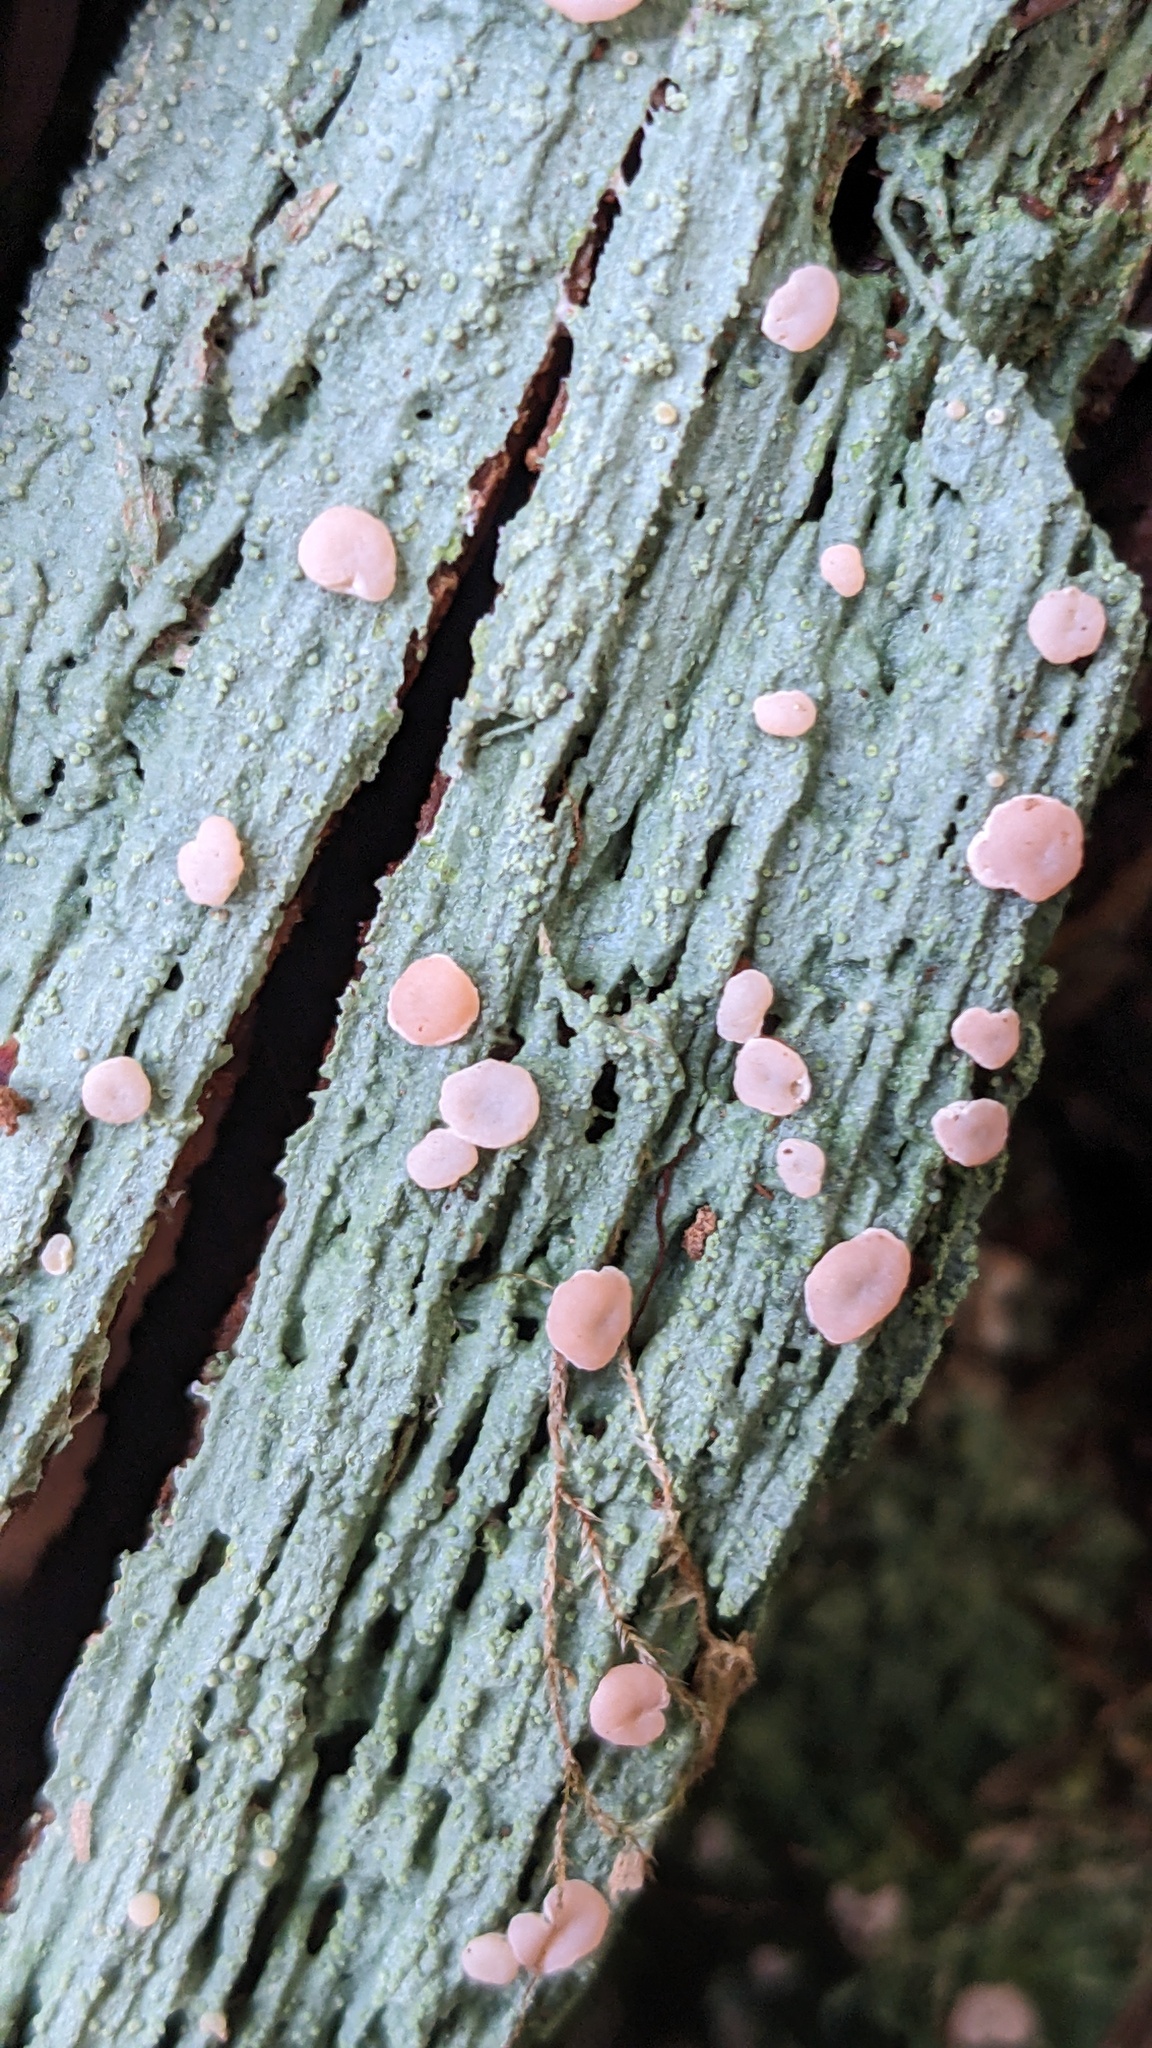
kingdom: Fungi
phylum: Ascomycota
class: Lecanoromycetes
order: Pertusariales
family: Icmadophilaceae
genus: Icmadophila
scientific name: Icmadophila ericetorum
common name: Candy lichen
